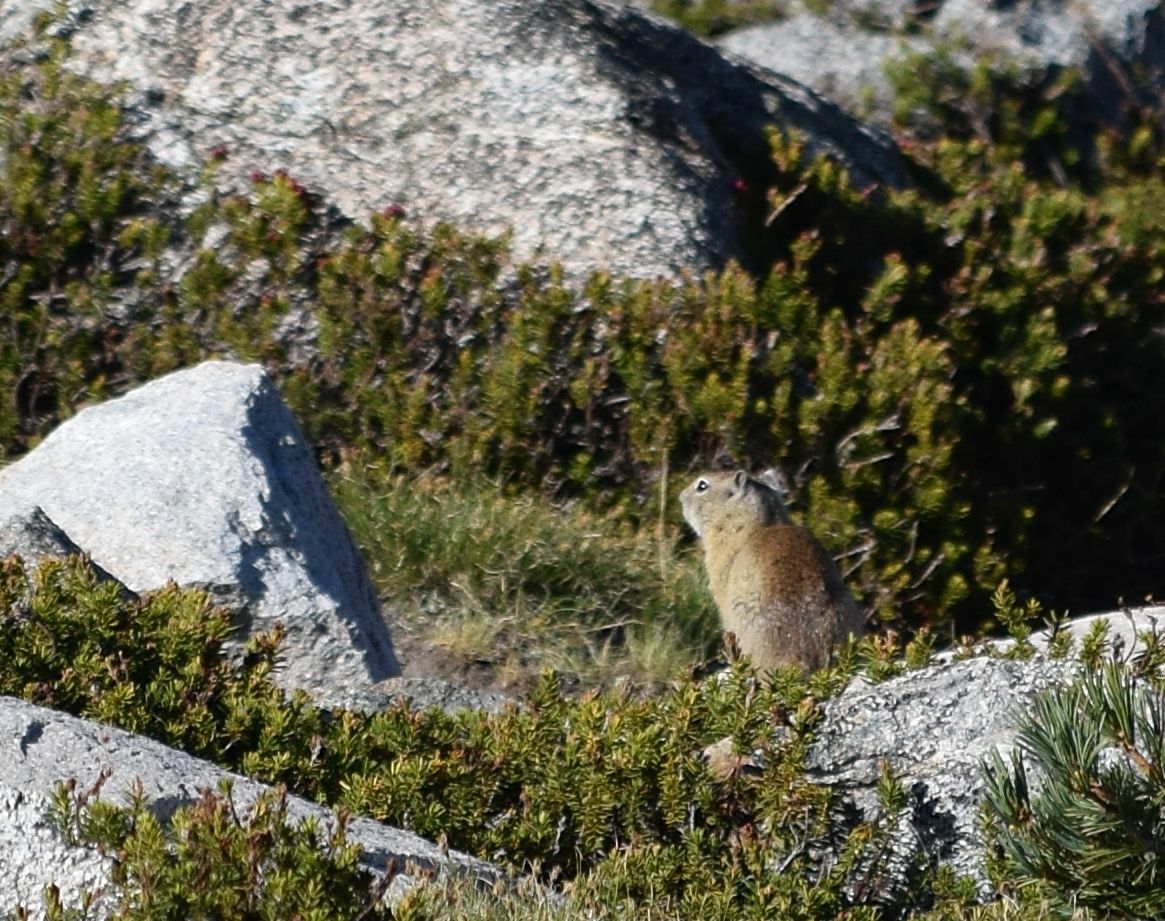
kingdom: Animalia
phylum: Chordata
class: Mammalia
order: Rodentia
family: Sciuridae
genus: Urocitellus
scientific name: Urocitellus beldingi
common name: Belding's ground squirrel
